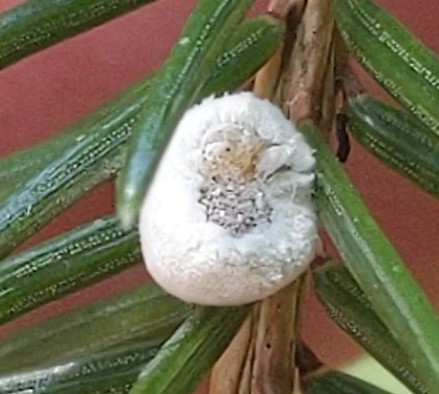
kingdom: Animalia
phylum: Arthropoda
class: Insecta
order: Lepidoptera
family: Epipyropidae
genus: Fulgoraecia
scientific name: Fulgoraecia exigua
